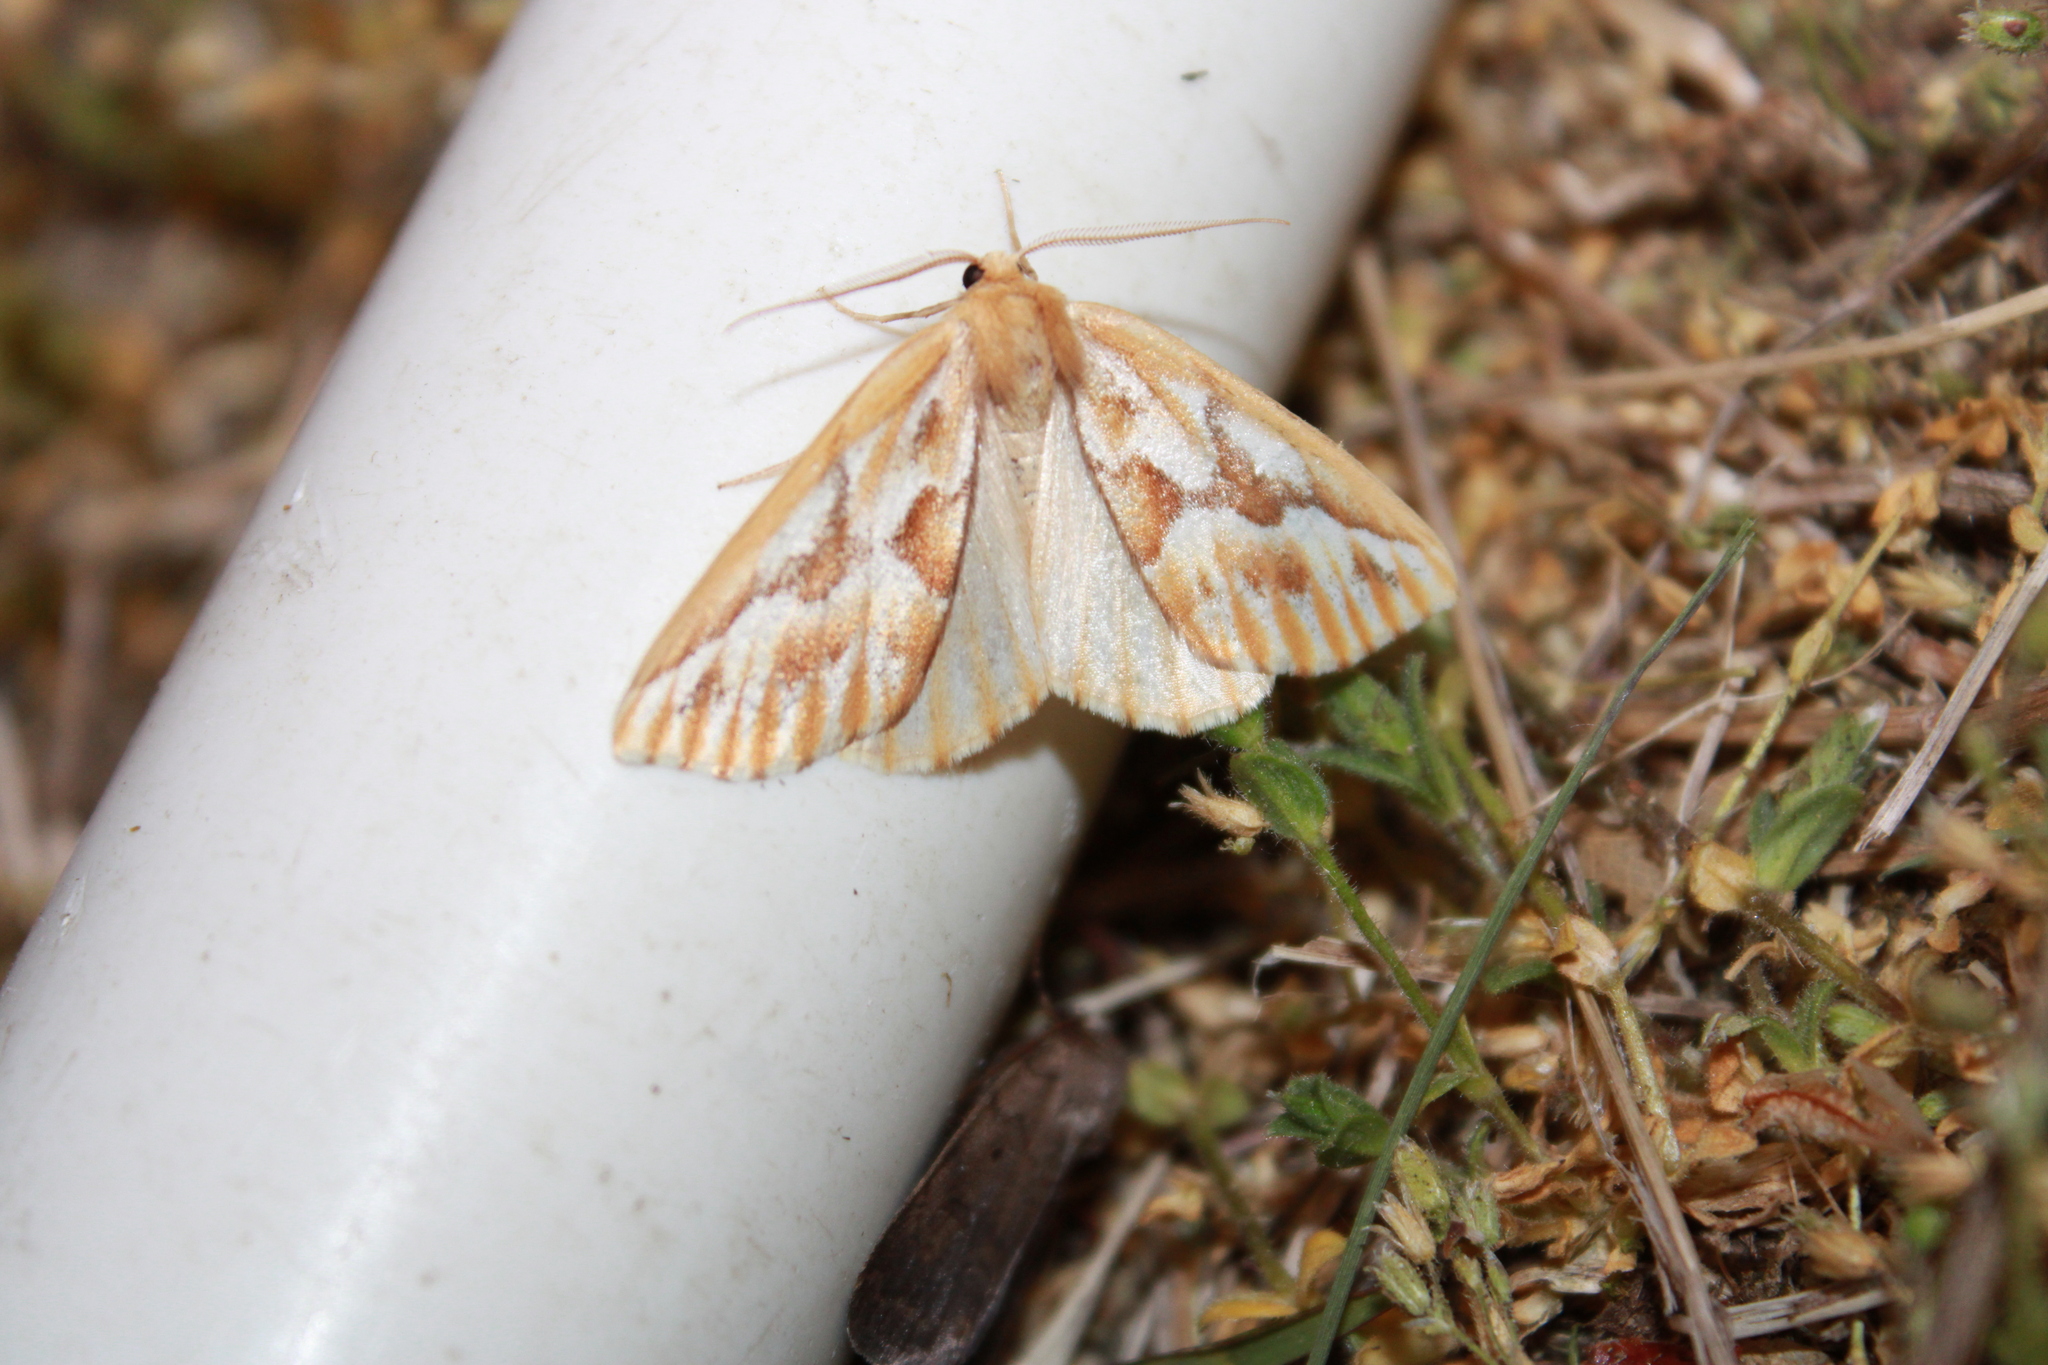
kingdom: Animalia
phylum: Arthropoda
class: Insecta
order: Lepidoptera
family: Geometridae
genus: Caripeta
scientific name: Caripeta piniata
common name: Northern pine looper moth
